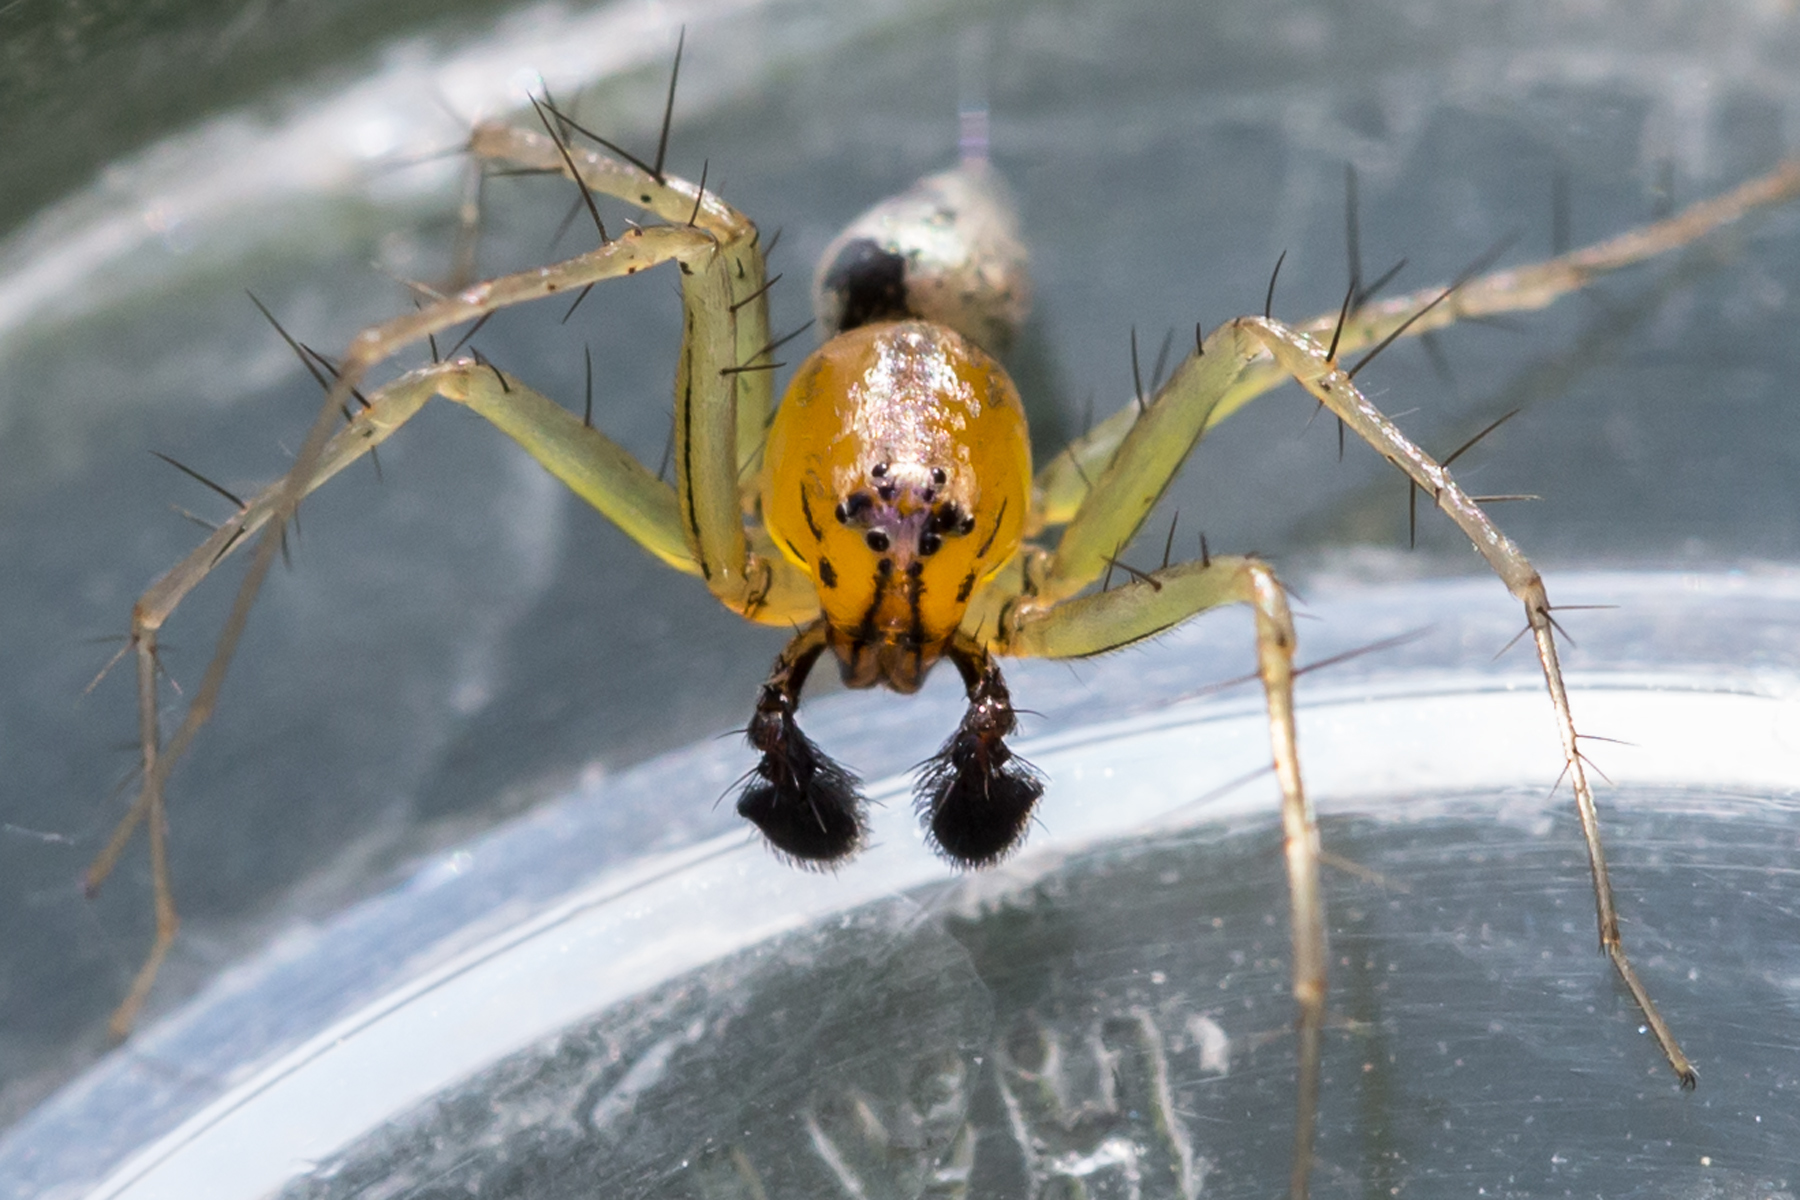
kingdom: Animalia
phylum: Arthropoda
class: Arachnida
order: Araneae
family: Oxyopidae
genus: Oxyopes
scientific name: Oxyopes salticus
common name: Lynx spiders
